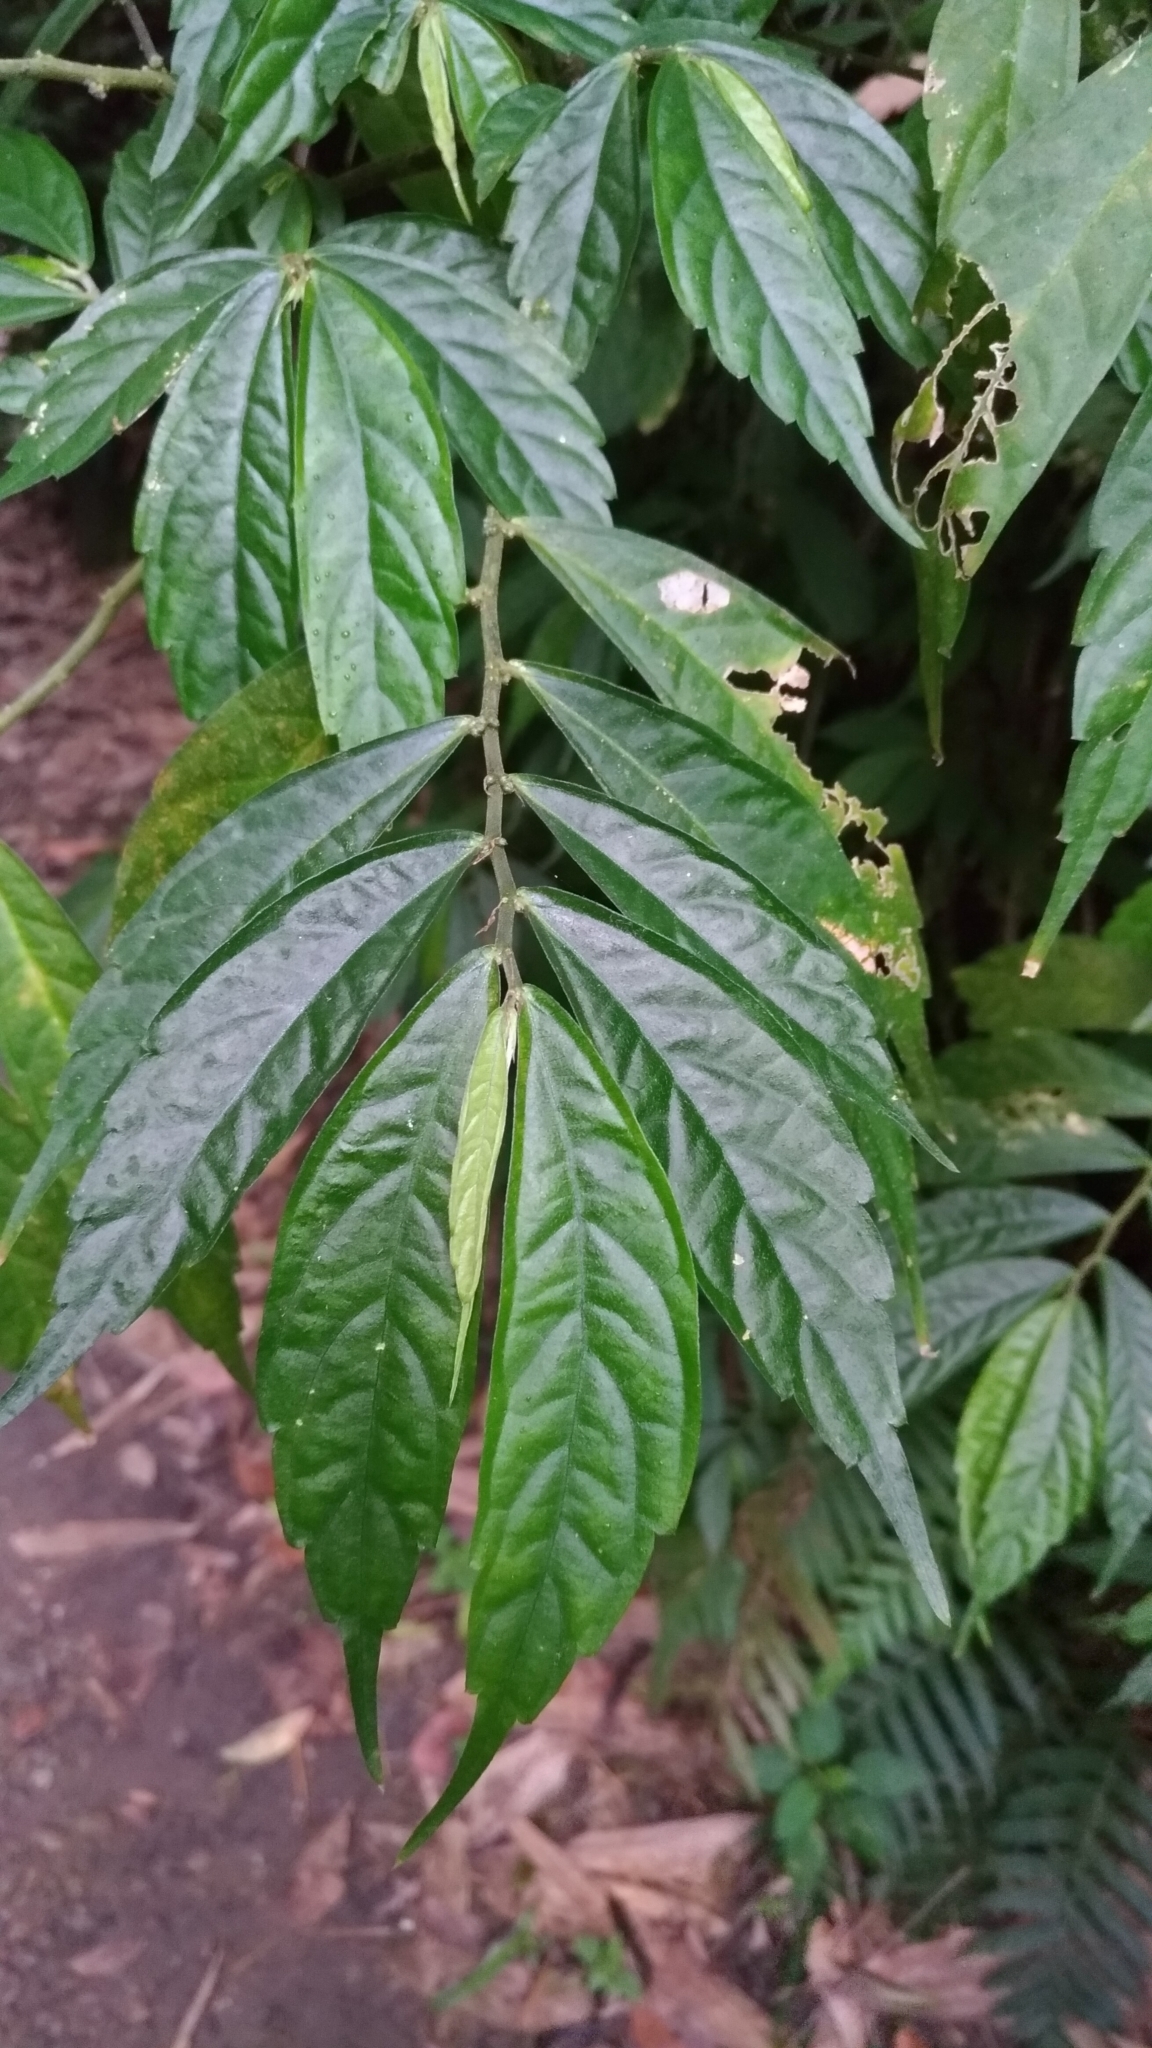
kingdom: Plantae
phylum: Tracheophyta
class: Magnoliopsida
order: Rosales
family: Urticaceae
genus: Elatostema
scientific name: Elatostema lineolatum
